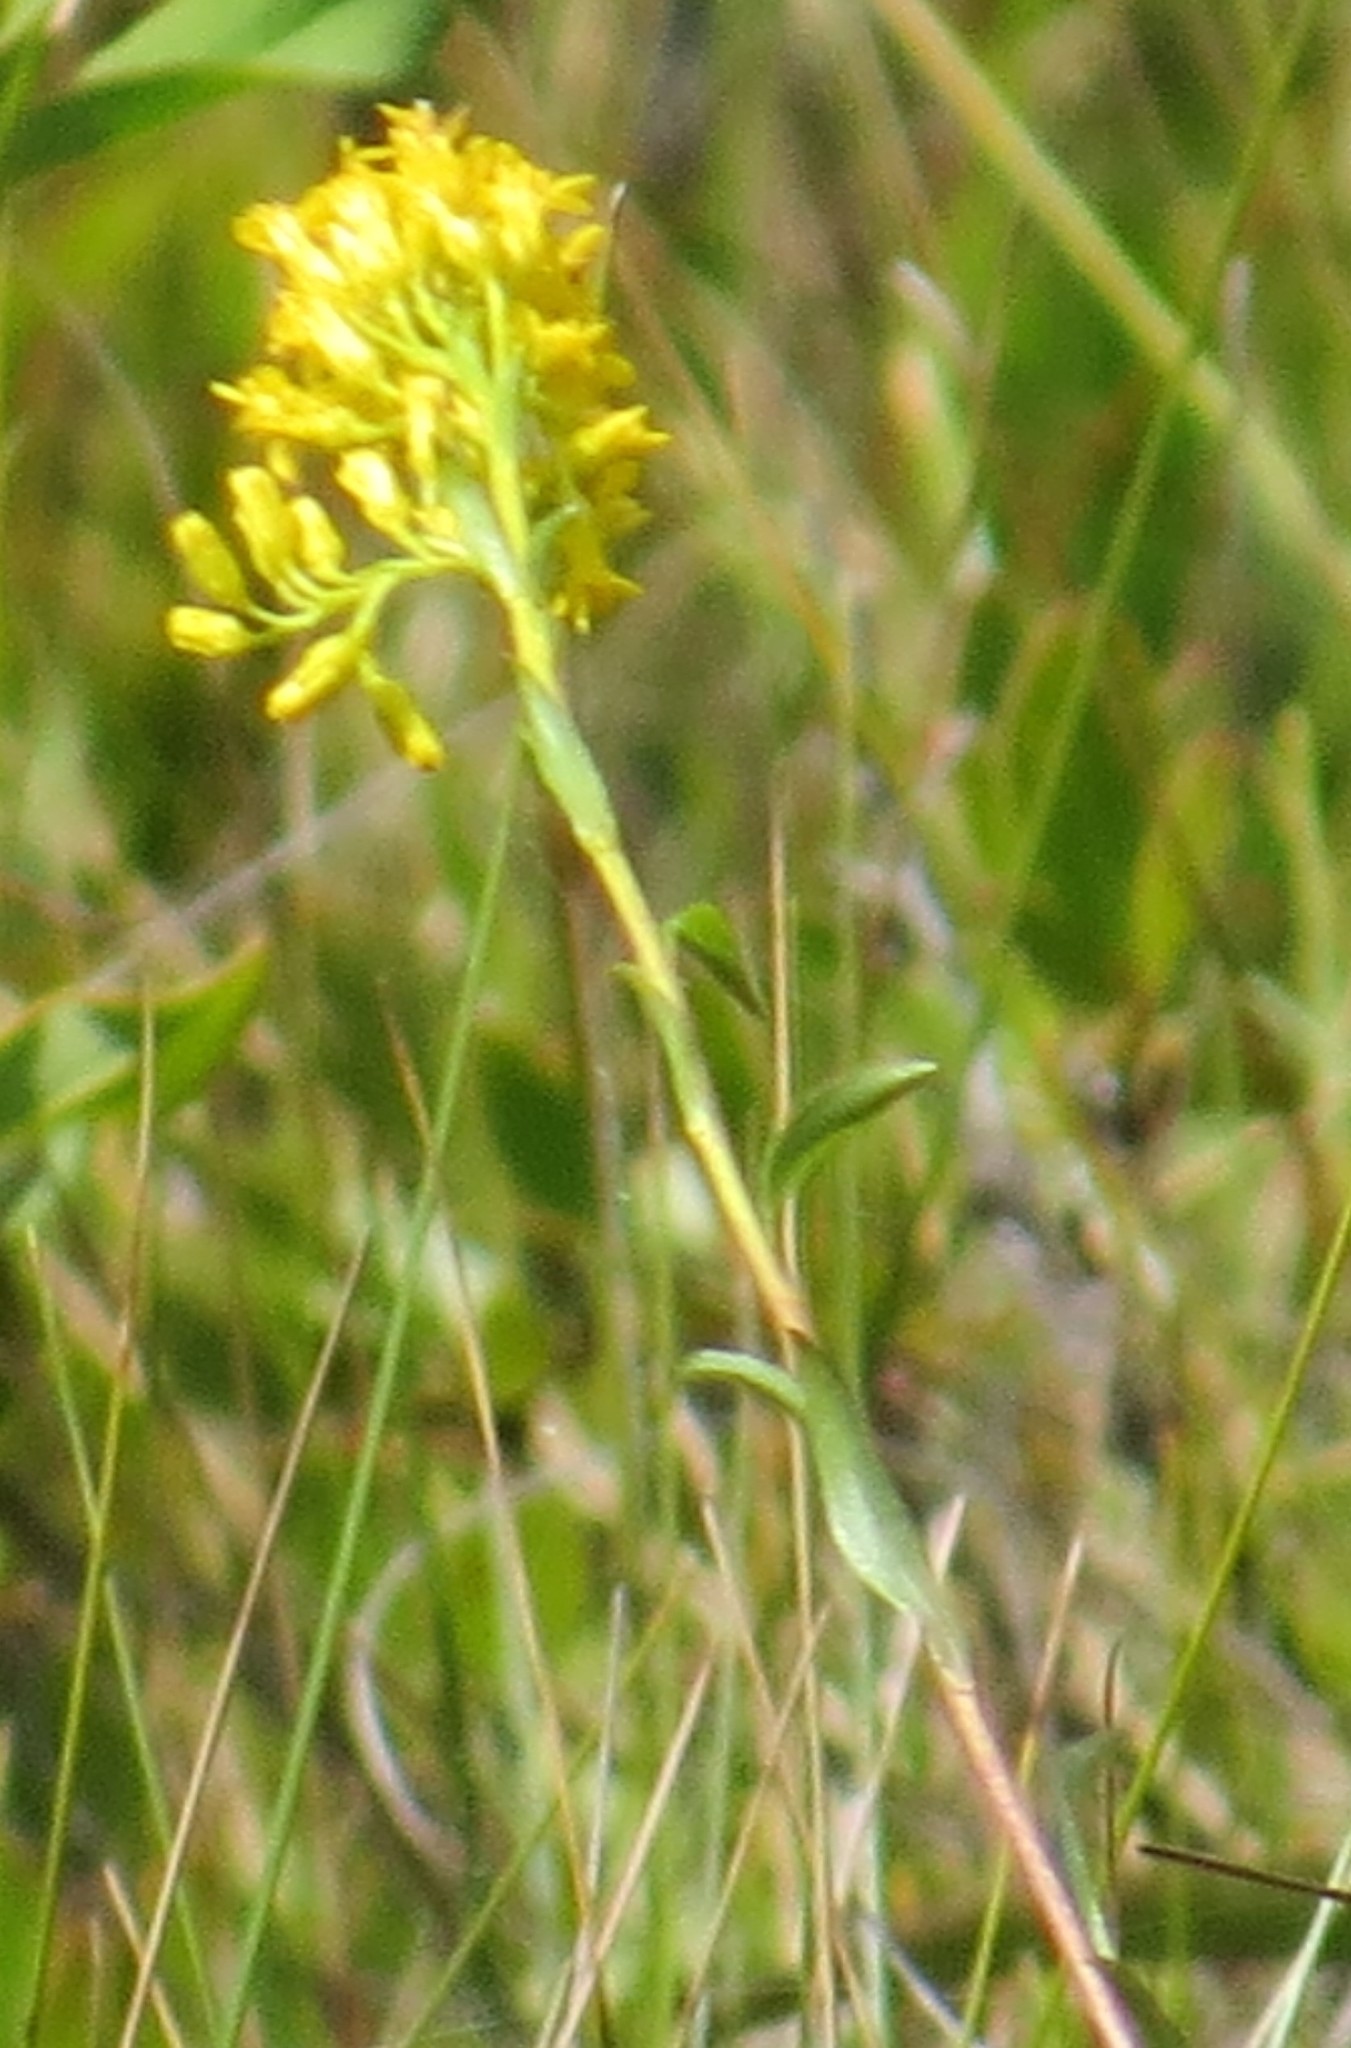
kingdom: Plantae
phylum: Tracheophyta
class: Magnoliopsida
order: Asterales
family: Asteraceae
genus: Solidago
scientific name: Solidago uliginosa
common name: Bog goldenrod
